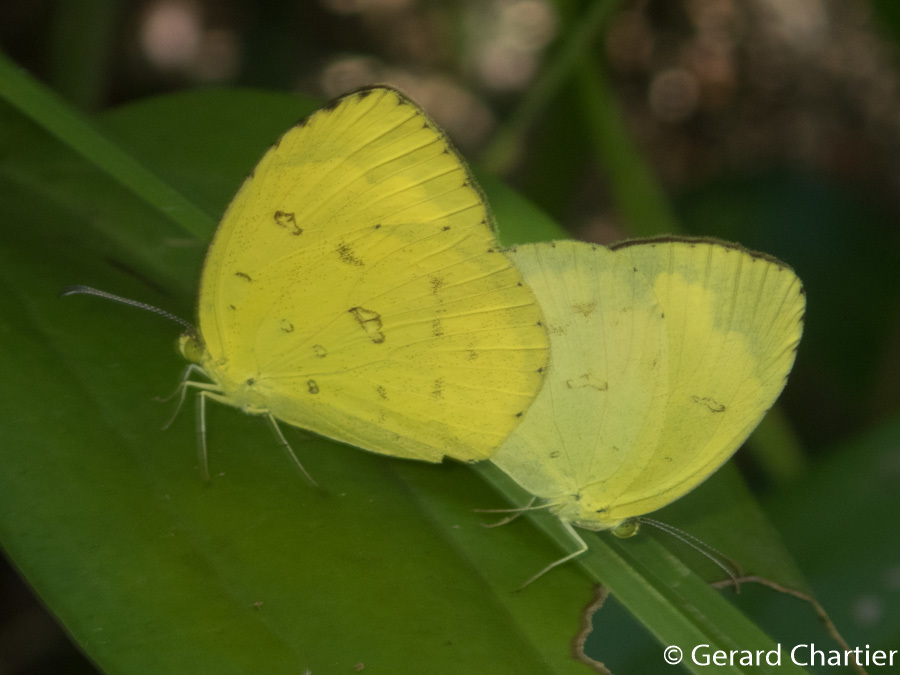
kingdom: Animalia
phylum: Arthropoda
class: Insecta
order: Lepidoptera
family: Pieridae
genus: Eurema
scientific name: Eurema hecabe
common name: Pale grass yellow
